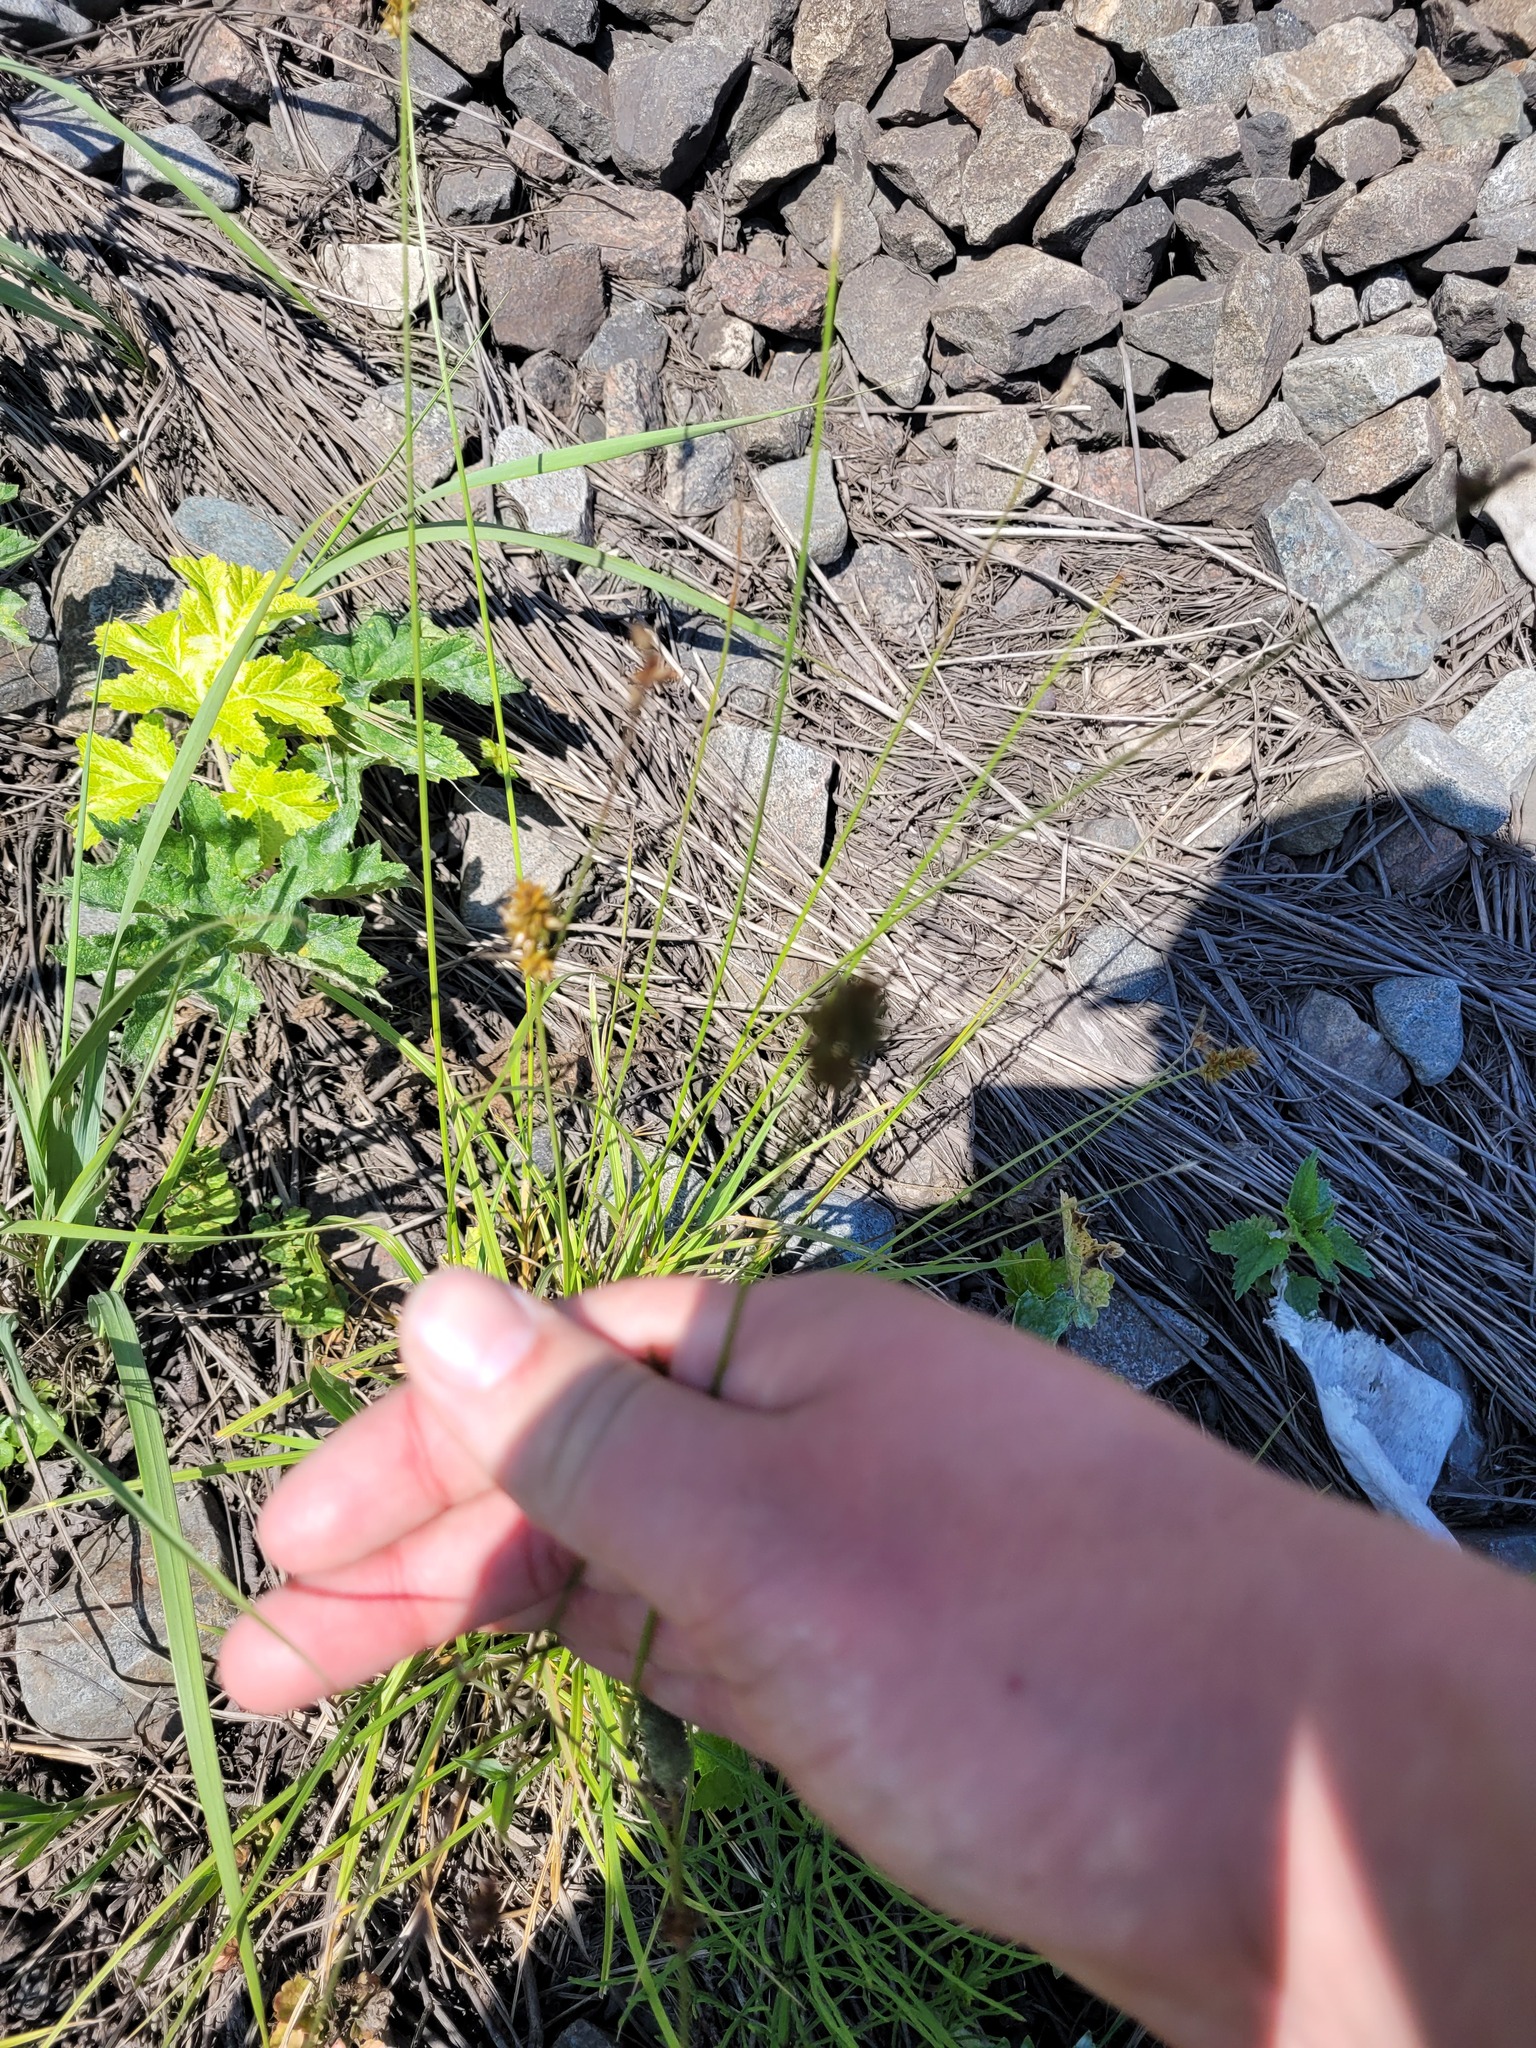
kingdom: Plantae
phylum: Tracheophyta
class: Liliopsida
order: Poales
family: Cyperaceae
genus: Carex
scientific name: Carex spicata
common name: Spiked sedge
